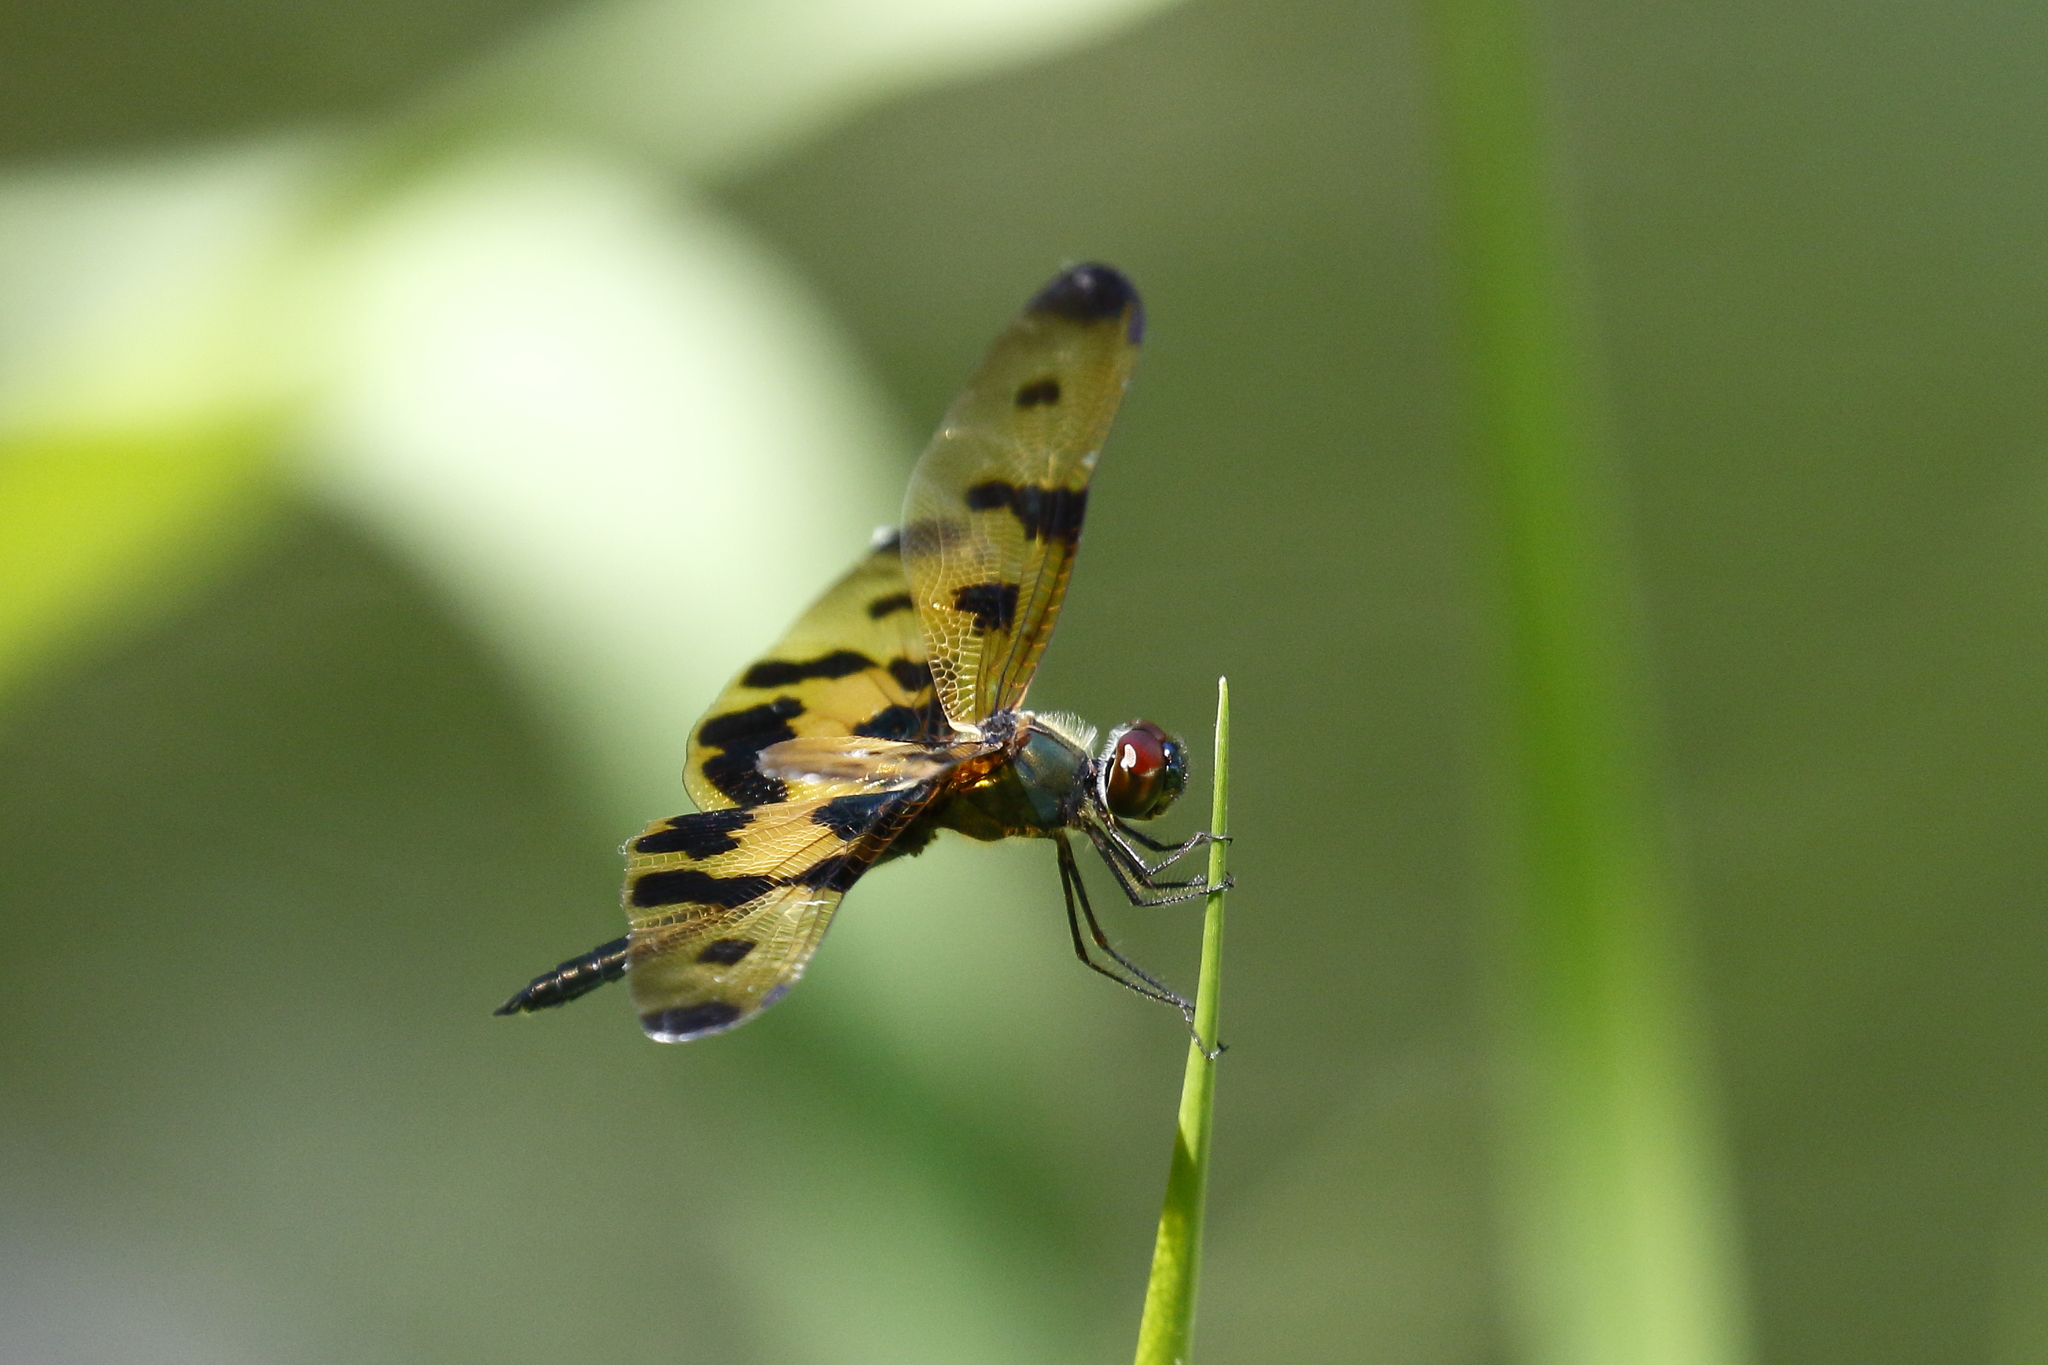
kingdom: Animalia
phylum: Arthropoda
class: Insecta
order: Odonata
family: Libellulidae
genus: Rhyothemis
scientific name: Rhyothemis variegata
